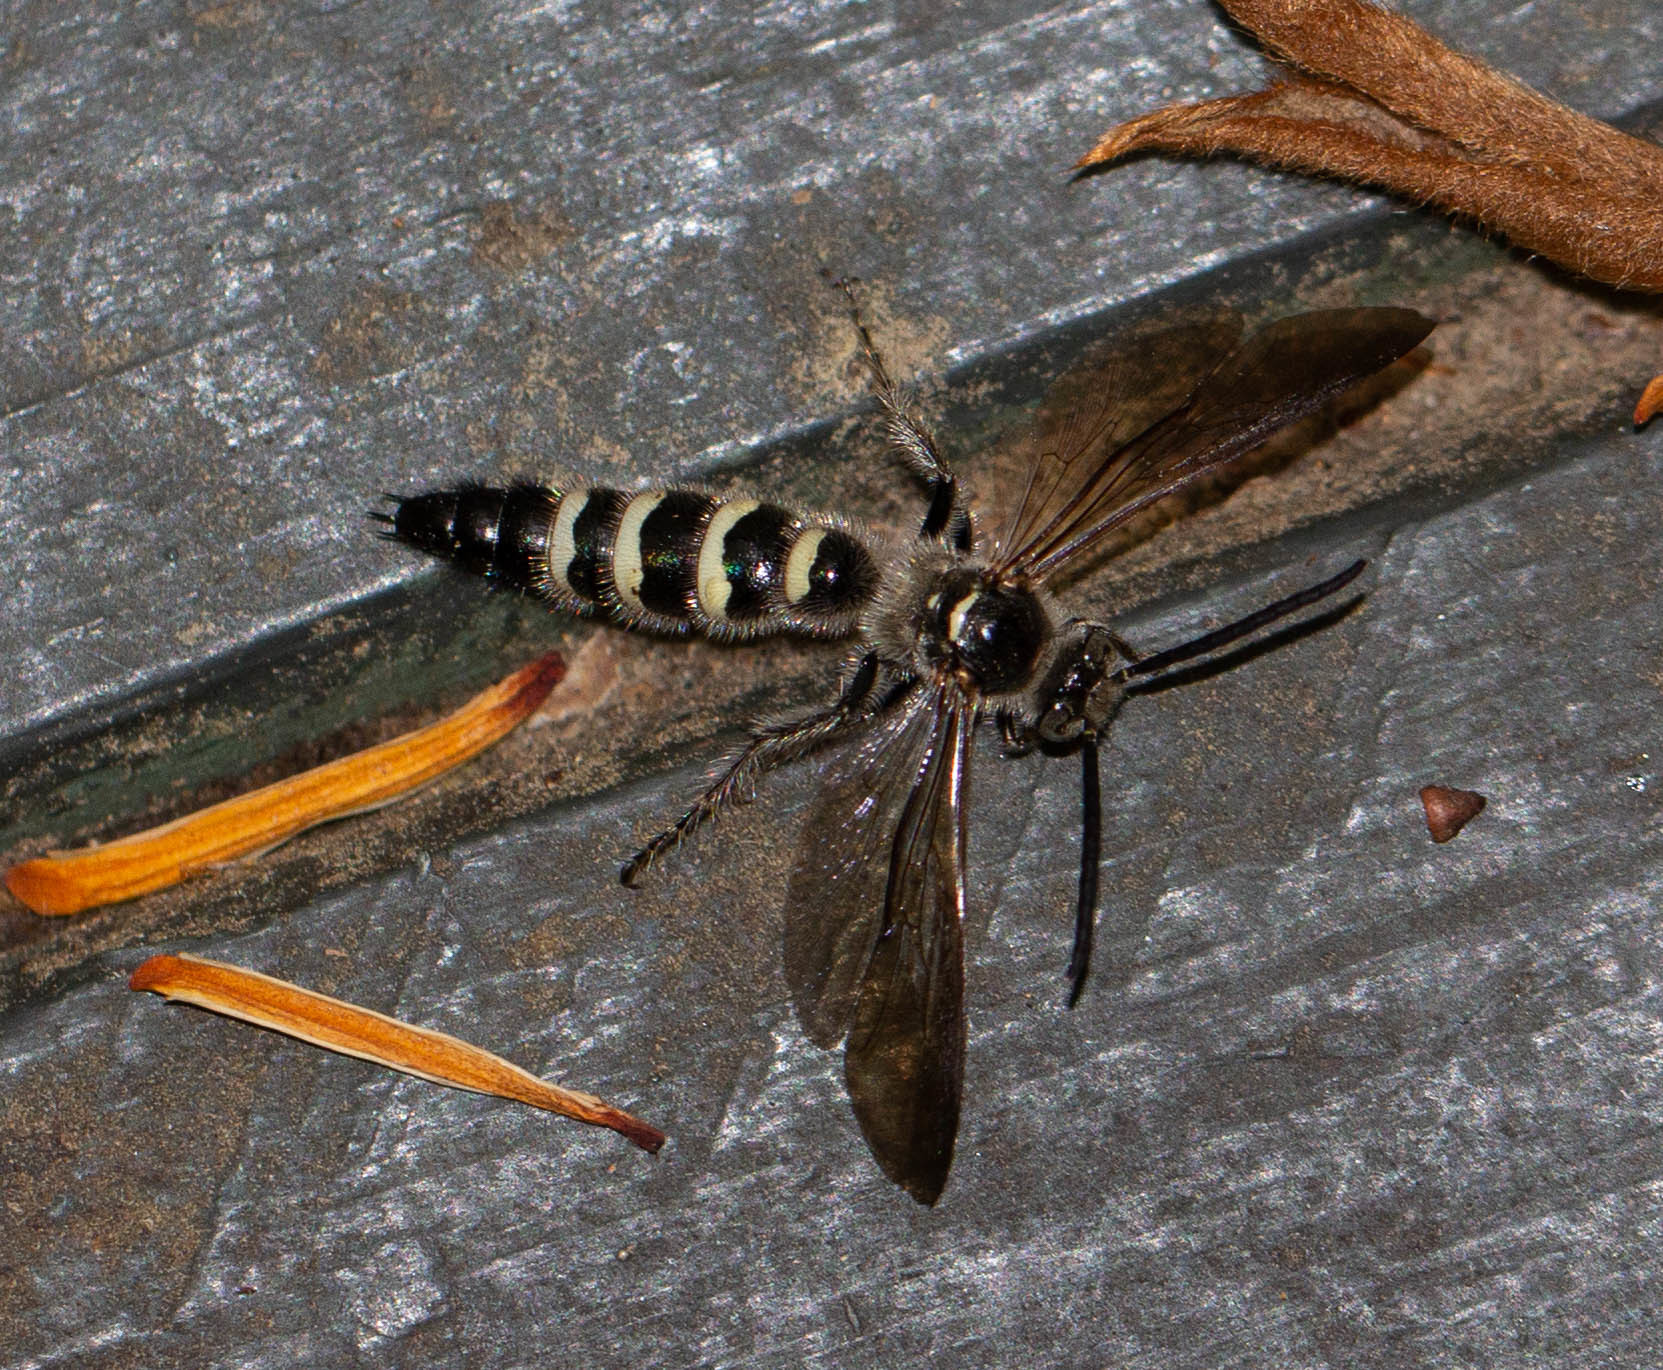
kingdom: Animalia
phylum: Arthropoda
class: Insecta
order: Hymenoptera
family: Scoliidae
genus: Dielis
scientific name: Dielis
